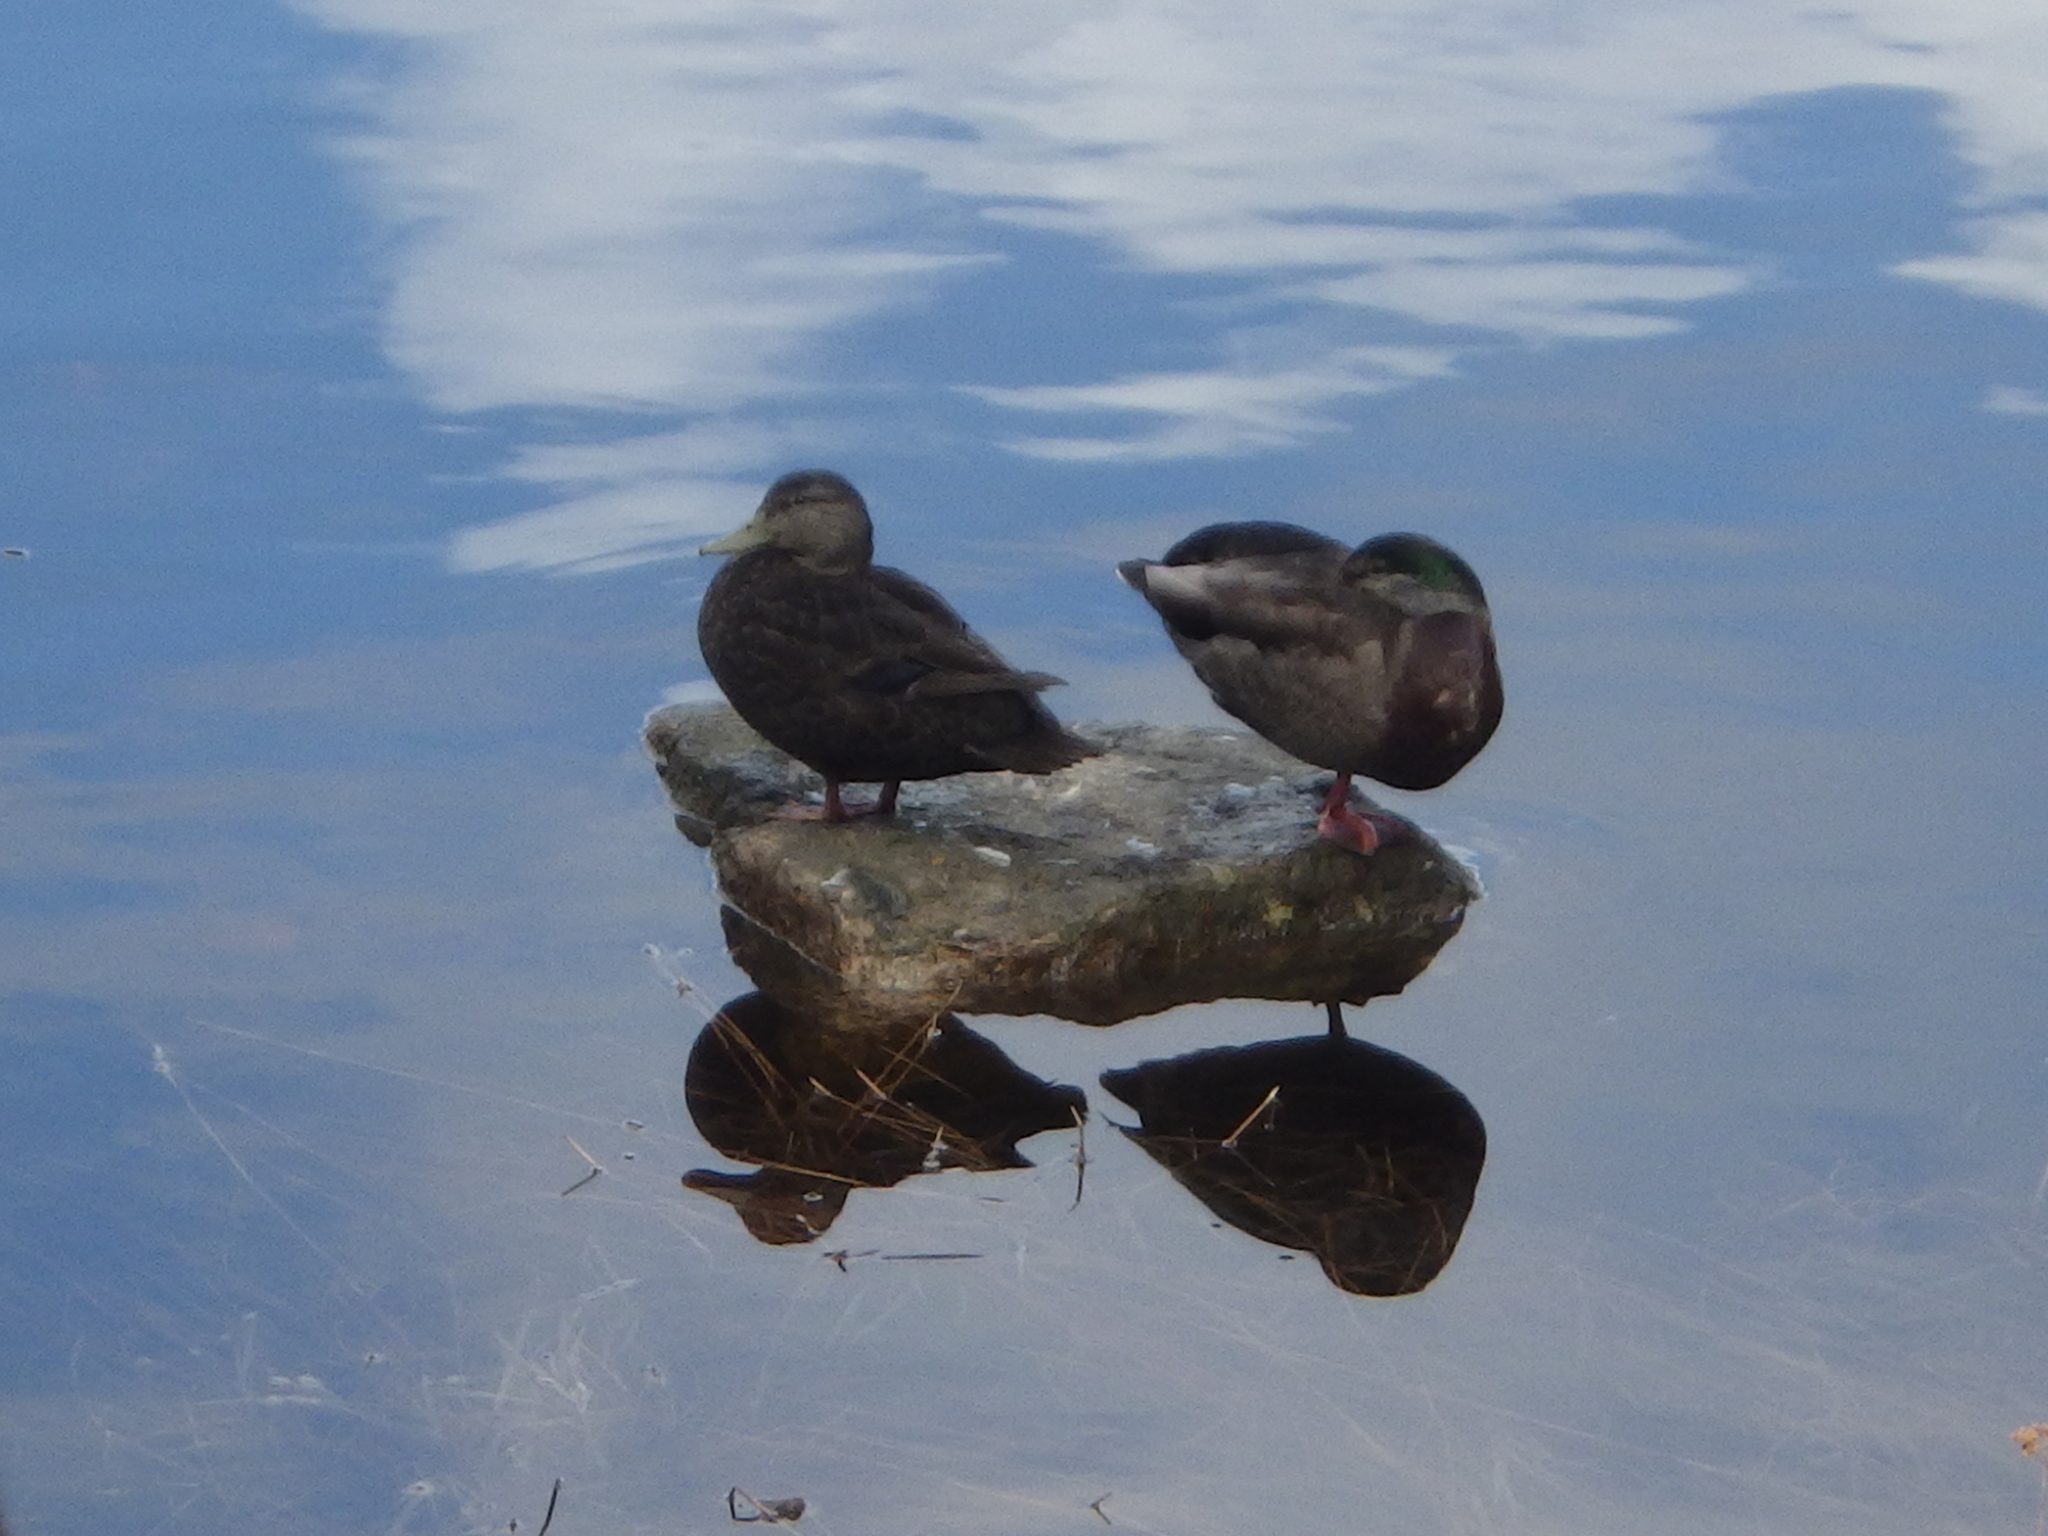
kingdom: Animalia
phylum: Chordata
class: Aves
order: Anseriformes
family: Anatidae
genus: Anas
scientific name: Anas
